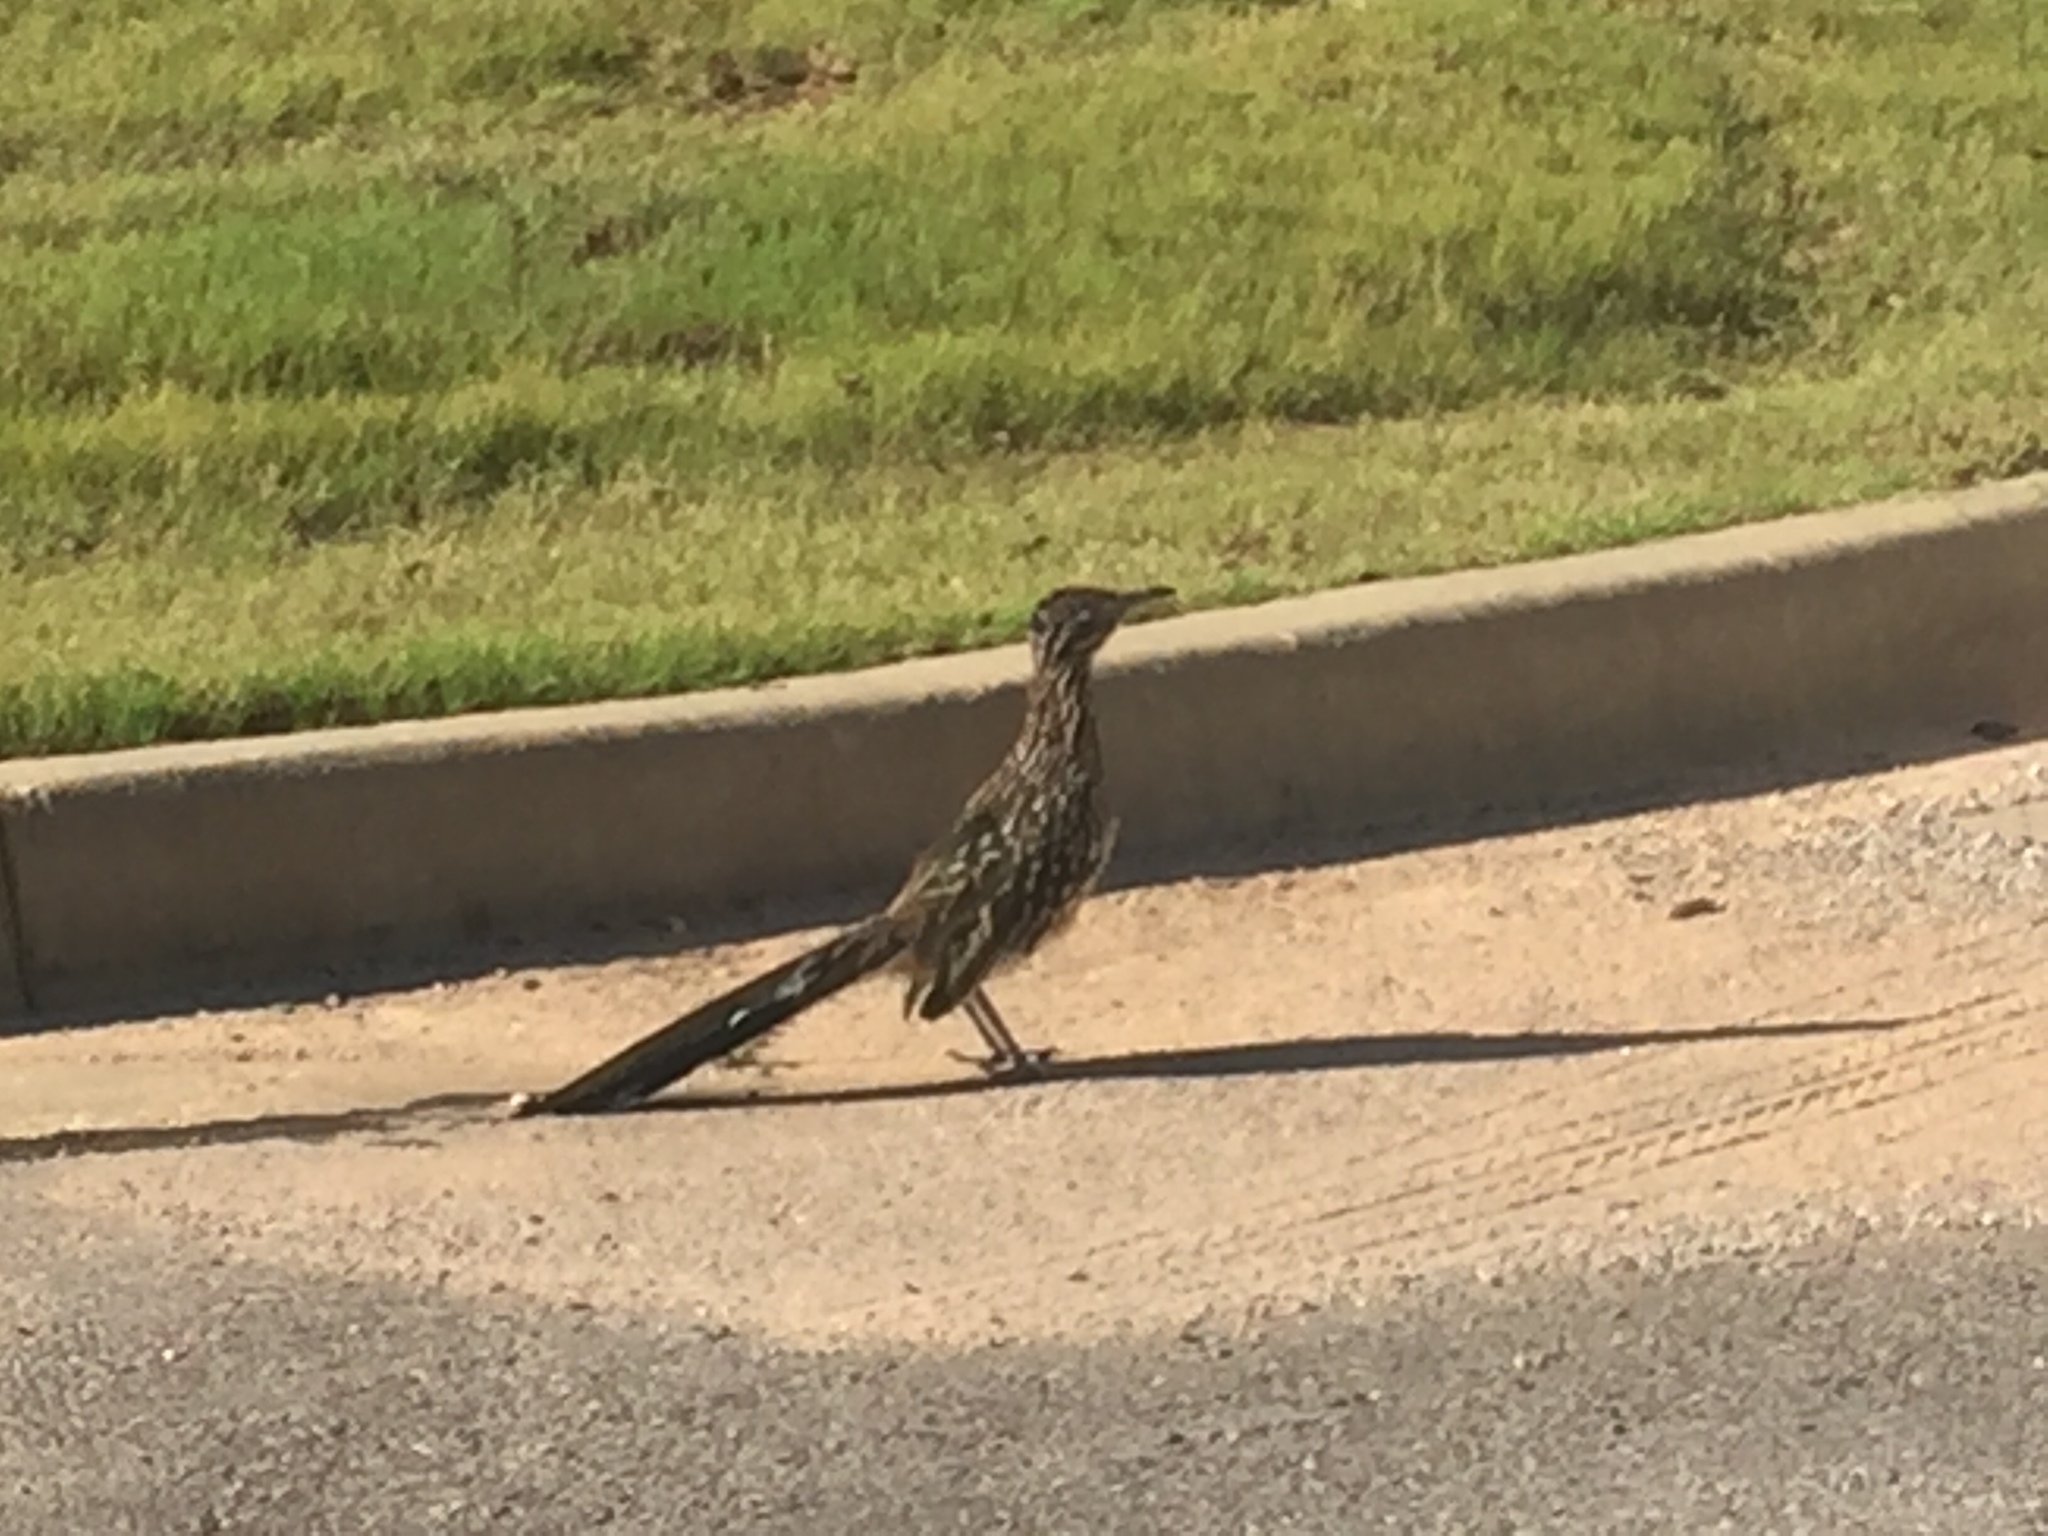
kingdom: Animalia
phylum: Chordata
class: Aves
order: Cuculiformes
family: Cuculidae
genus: Geococcyx
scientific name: Geococcyx californianus
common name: Greater roadrunner
